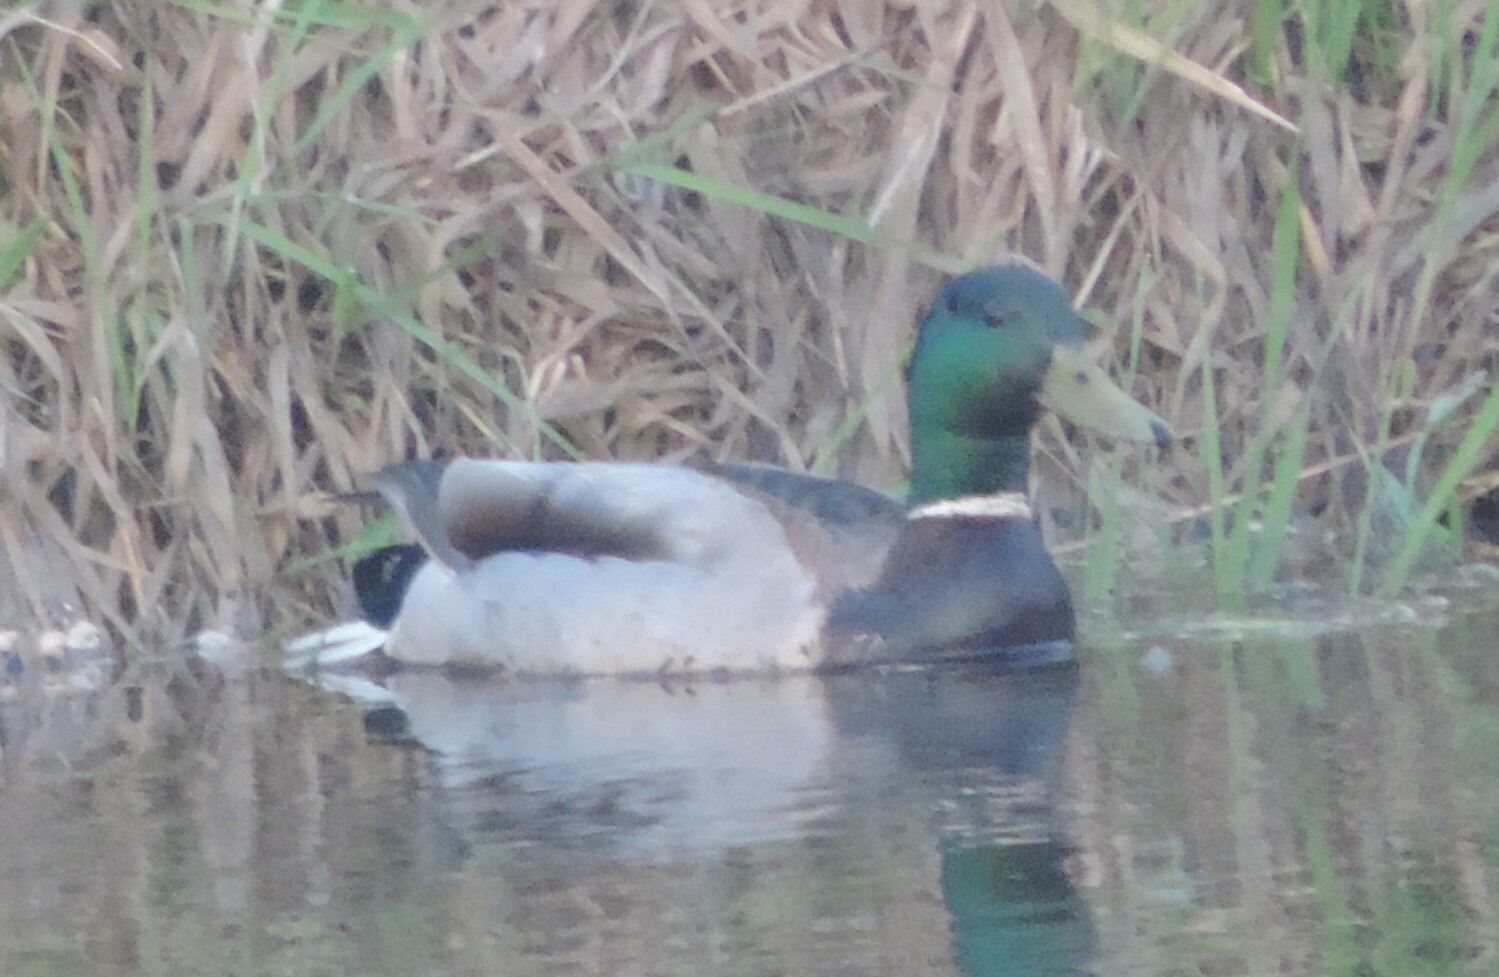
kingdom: Animalia
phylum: Chordata
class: Aves
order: Anseriformes
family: Anatidae
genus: Anas
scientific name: Anas platyrhynchos
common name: Mallard
